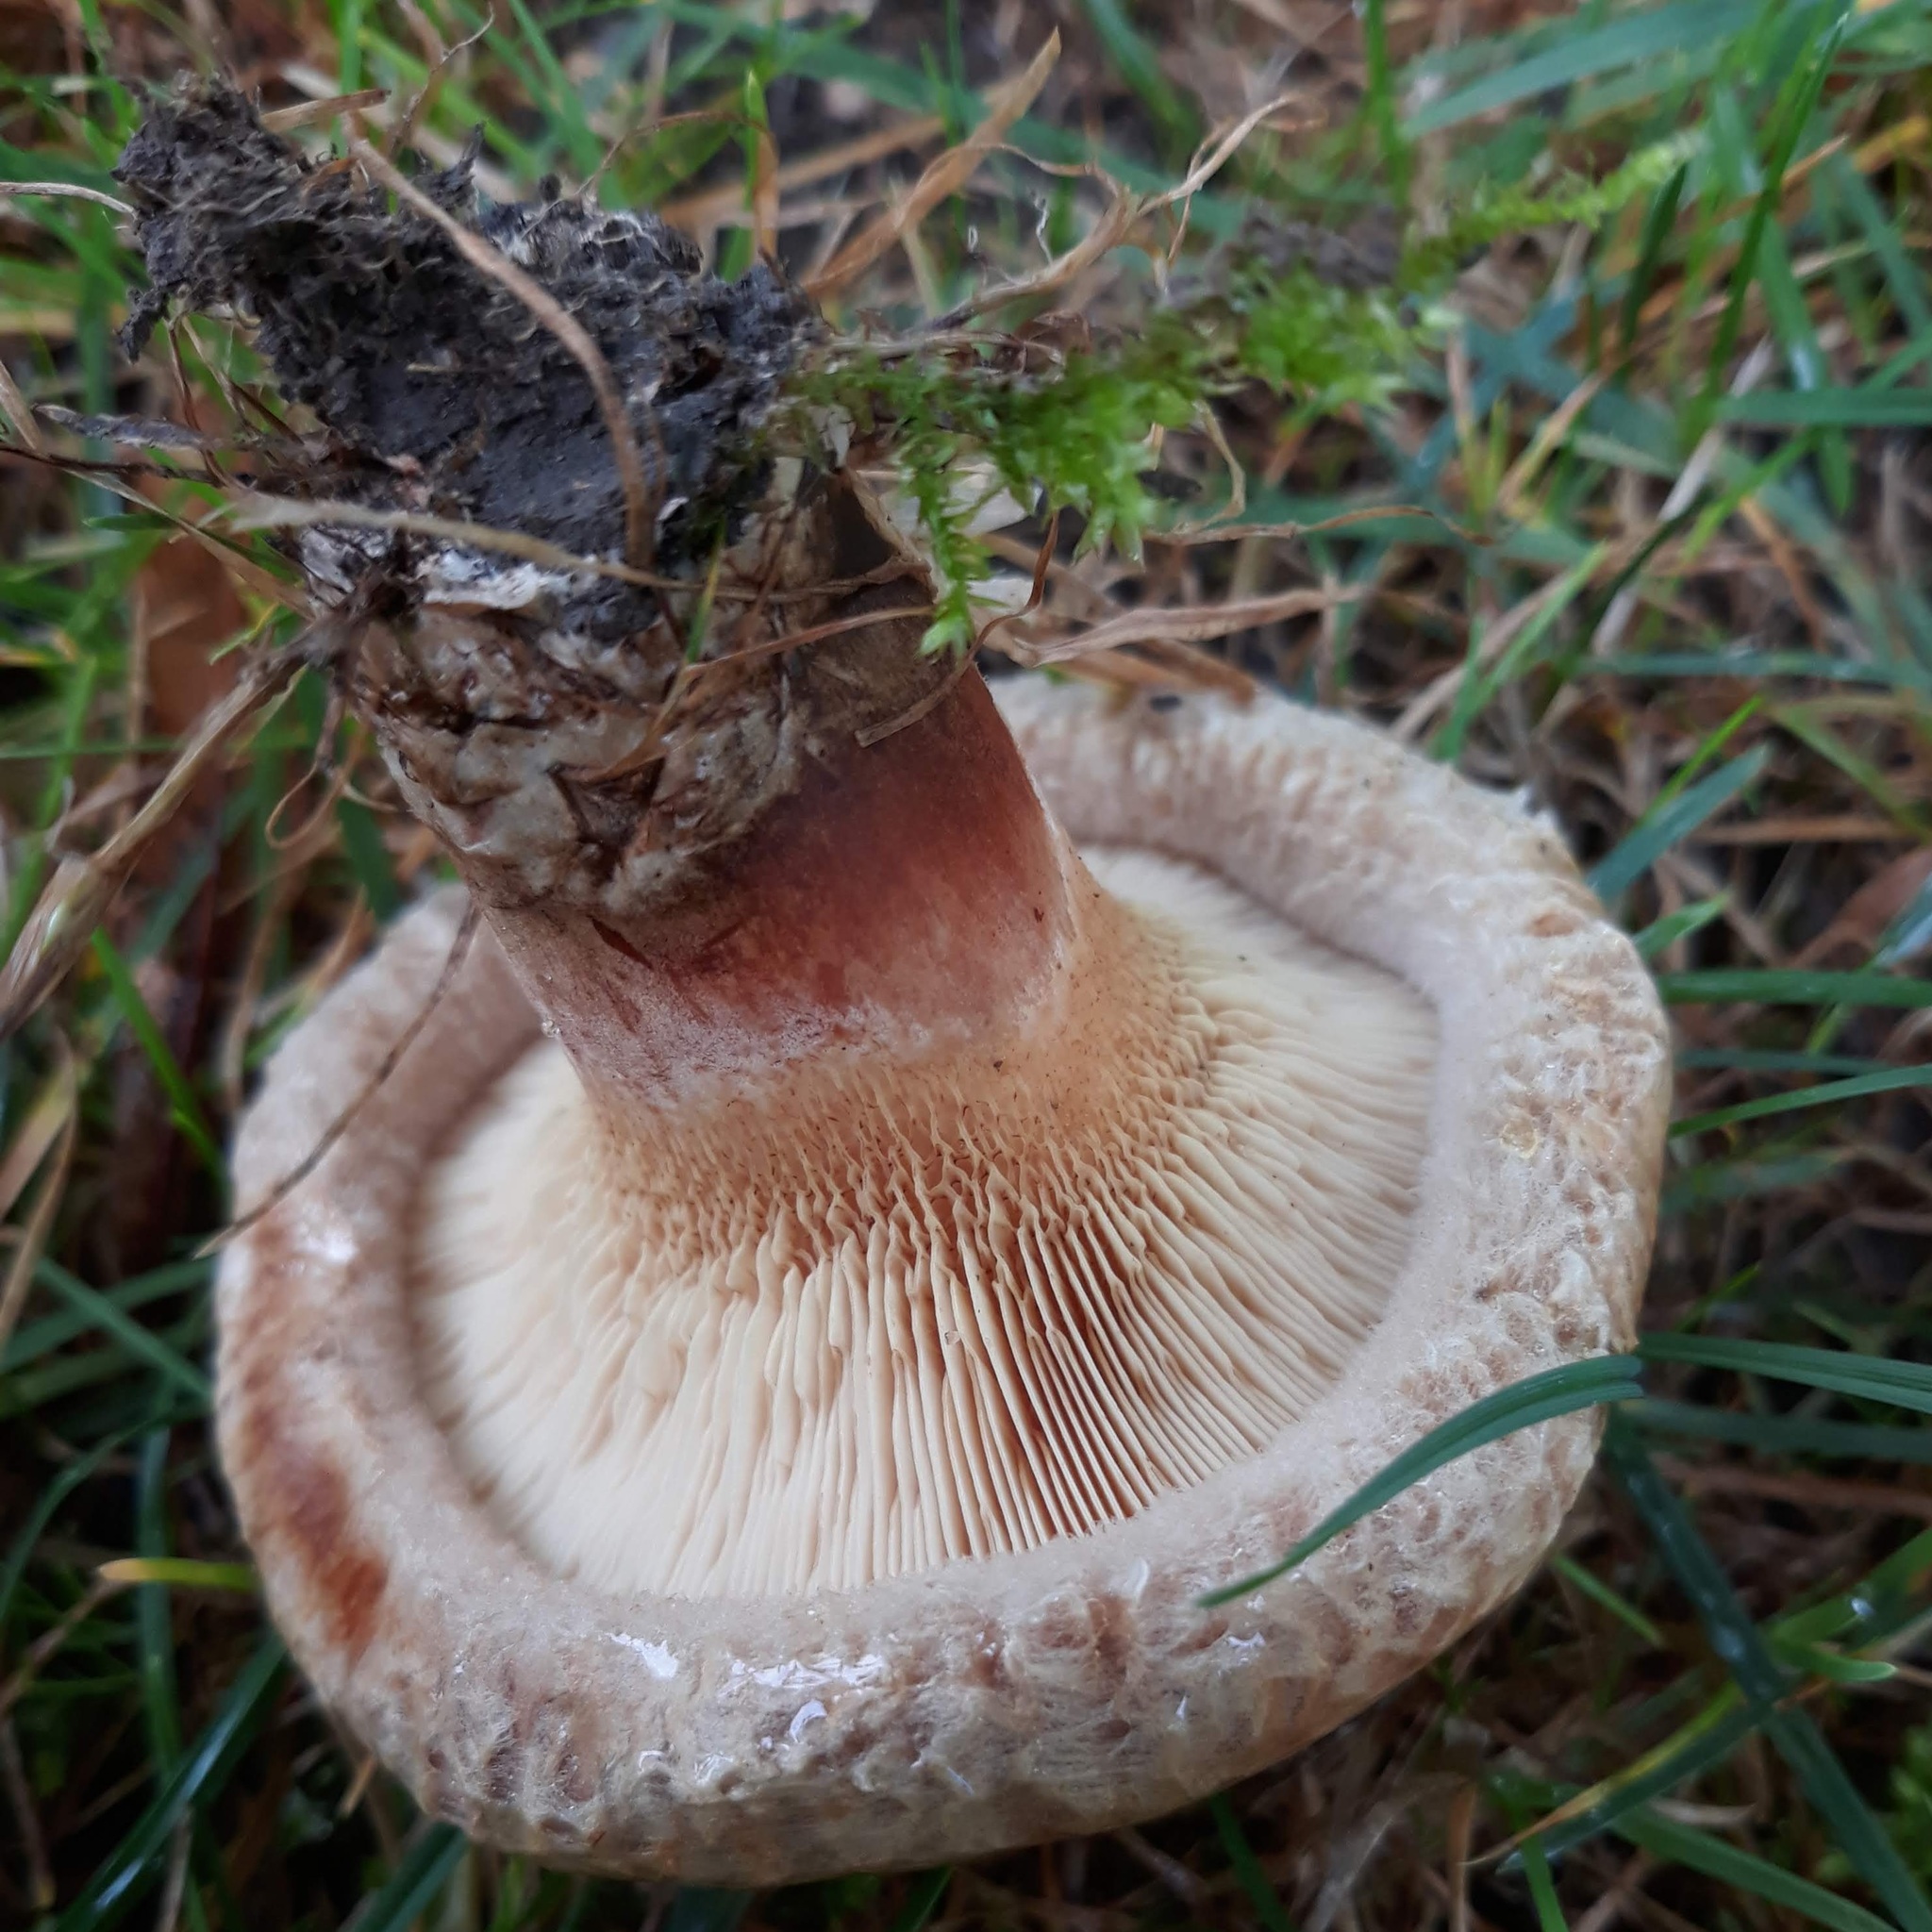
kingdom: Fungi
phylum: Basidiomycota
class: Agaricomycetes
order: Boletales
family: Paxillaceae
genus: Paxillus
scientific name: Paxillus involutus
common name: Brown roll rim
